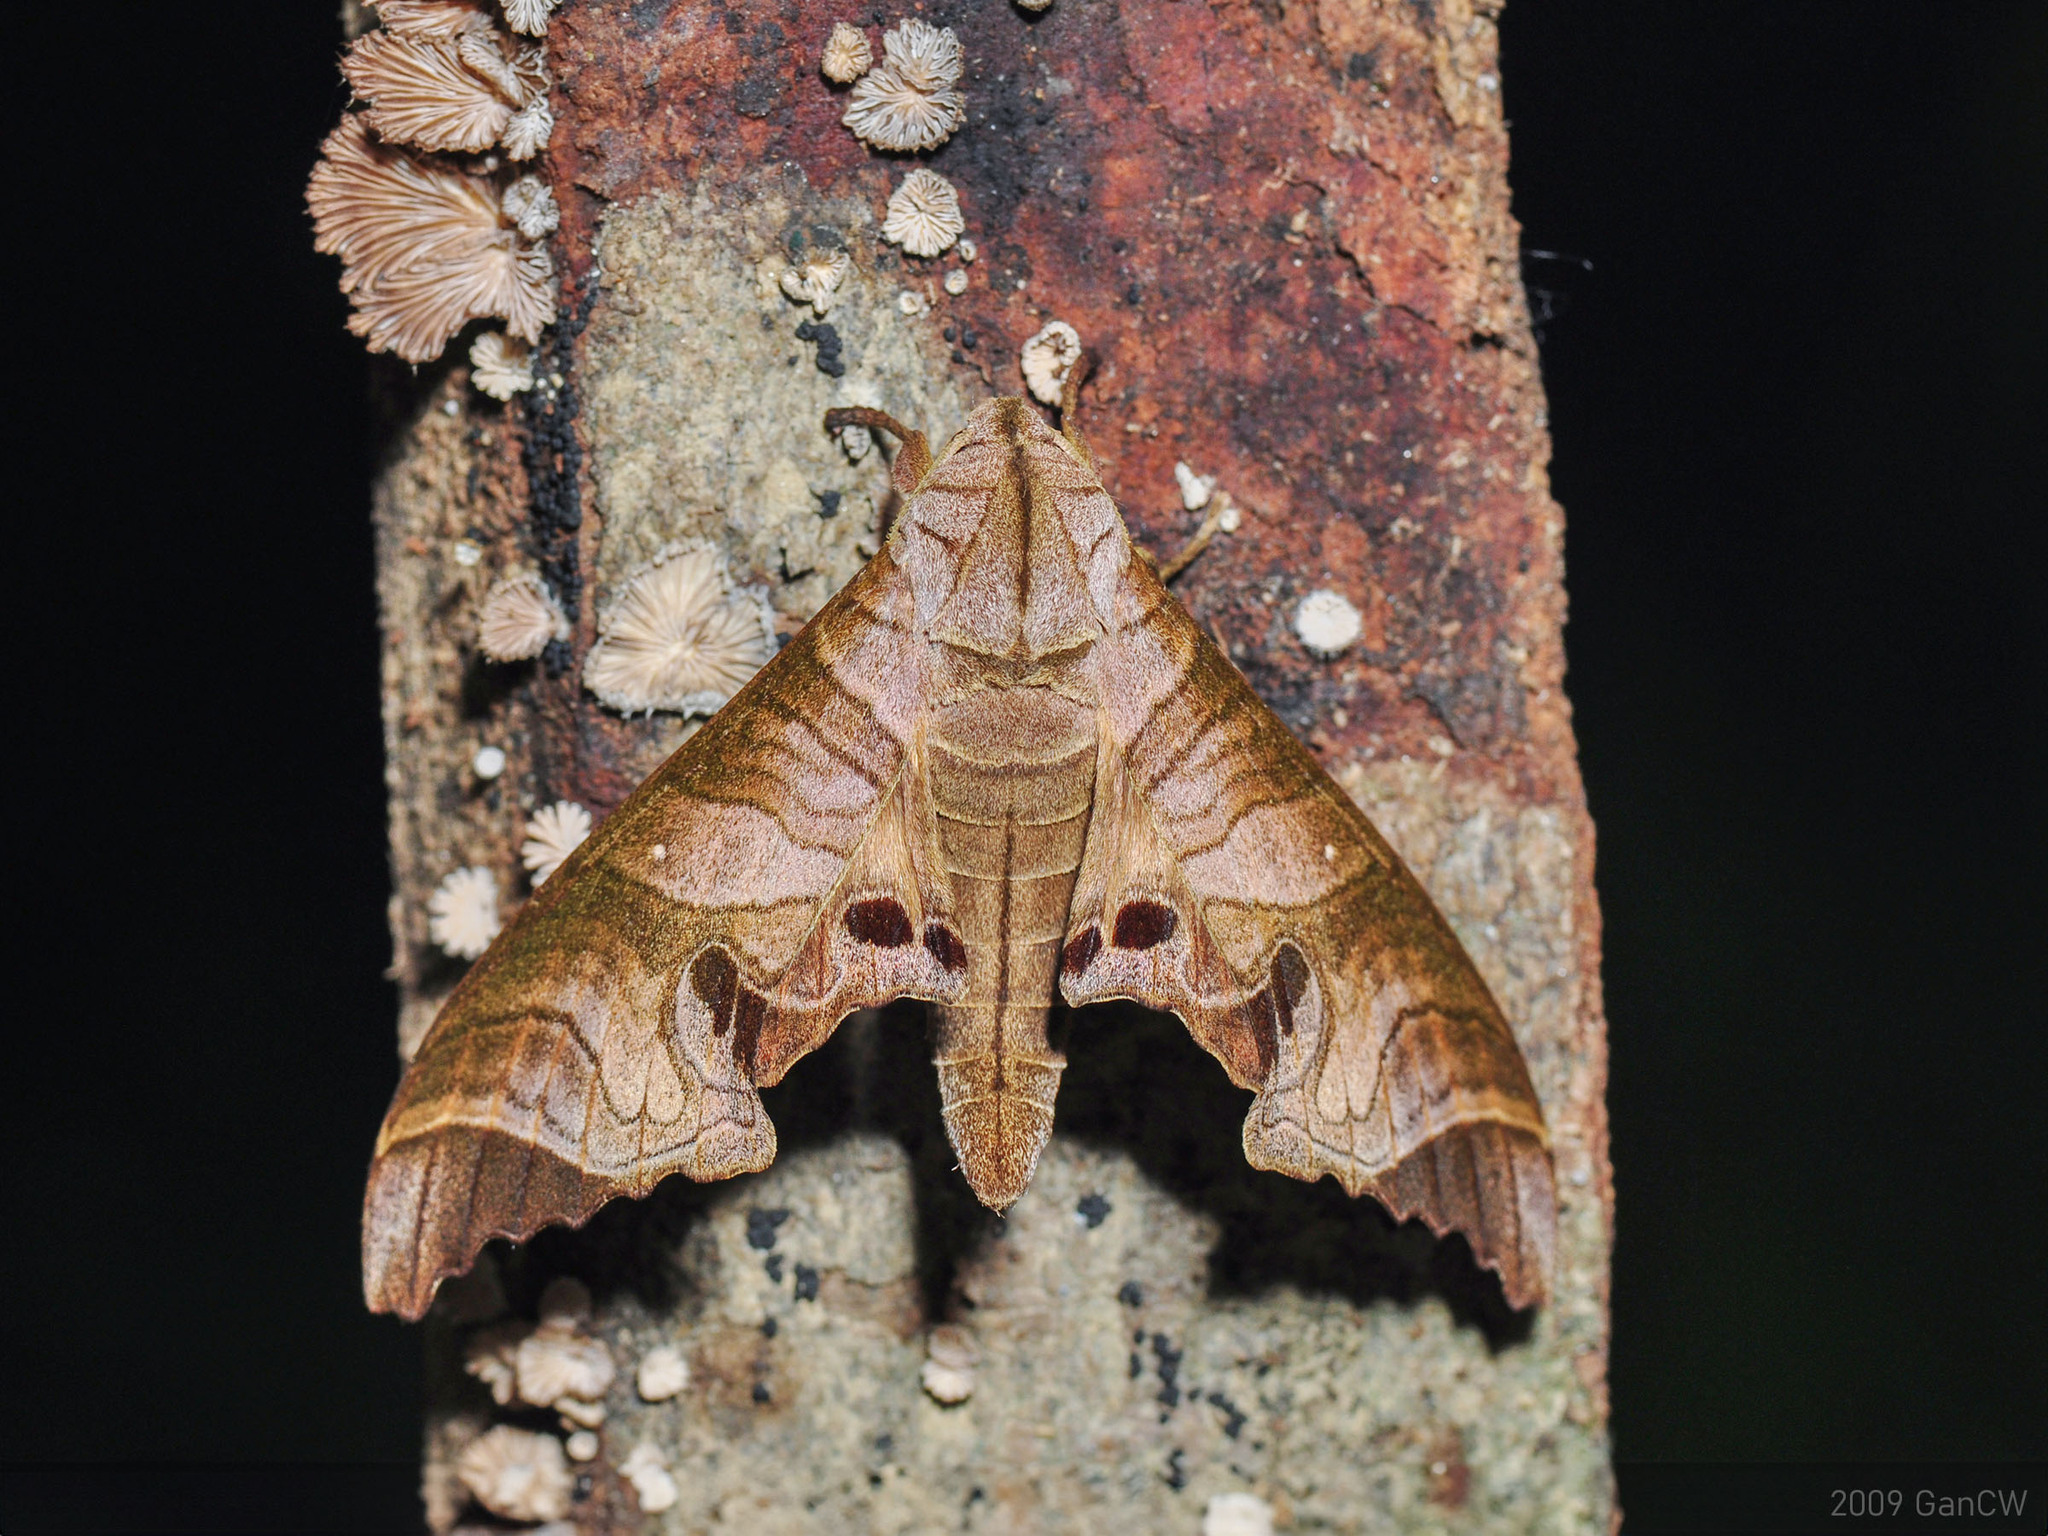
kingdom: Animalia
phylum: Arthropoda
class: Insecta
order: Lepidoptera
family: Sphingidae
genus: Marumba
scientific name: Marumba spectabilis
